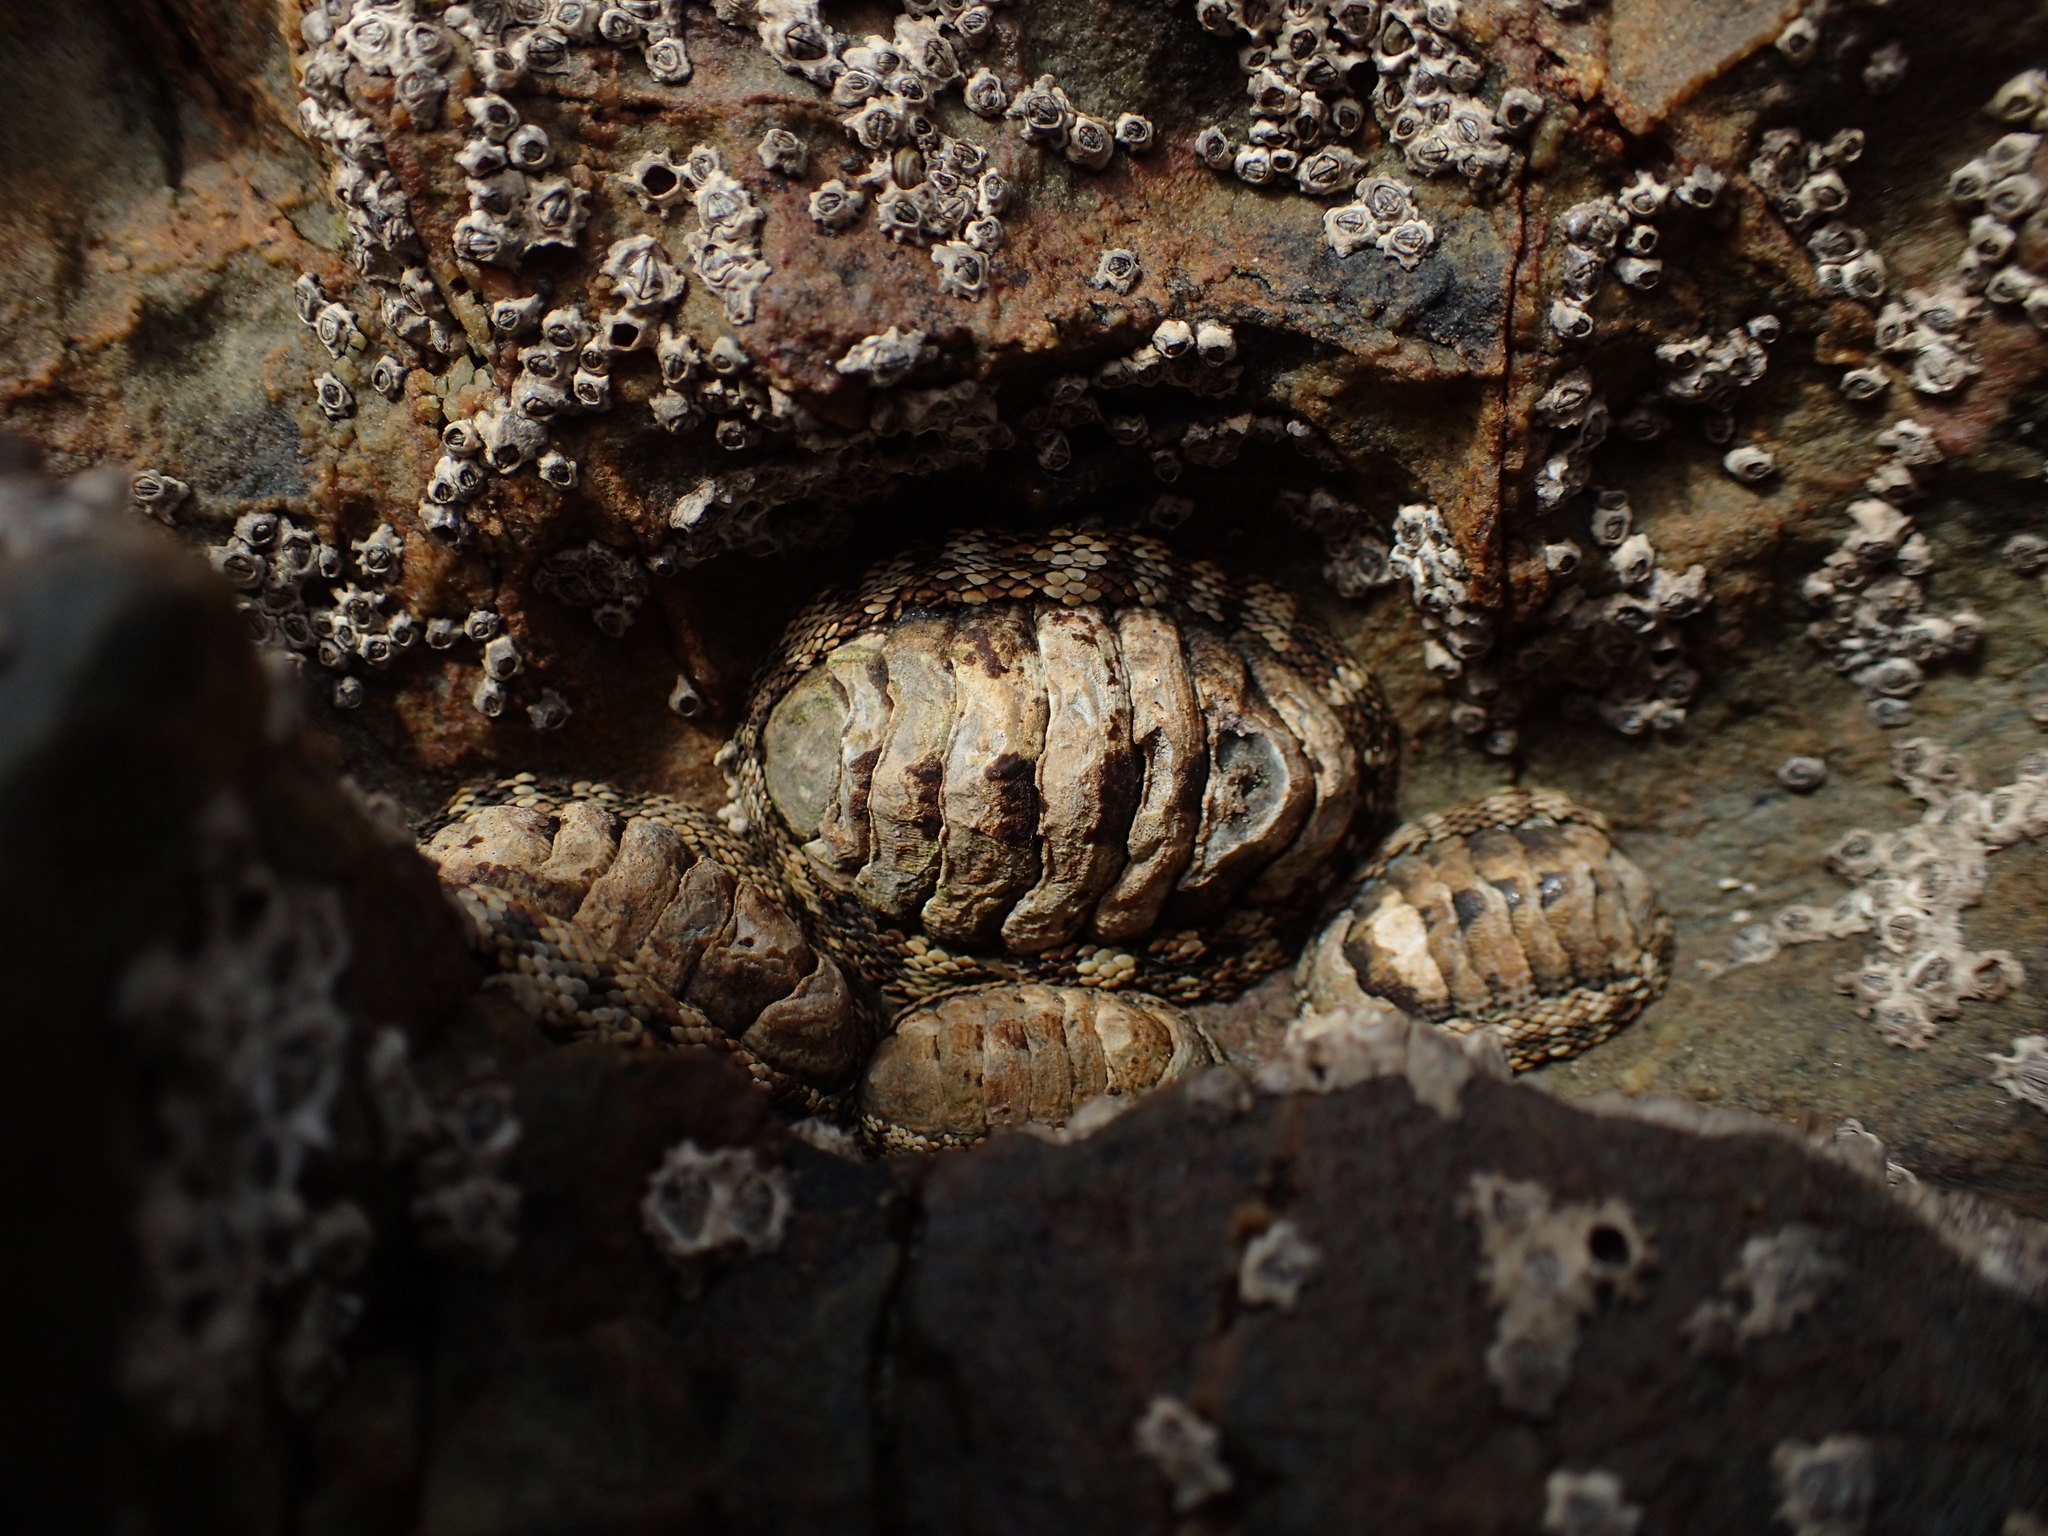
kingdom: Animalia
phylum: Mollusca
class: Polyplacophora
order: Chitonida
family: Chitonidae
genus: Sypharochiton
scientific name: Sypharochiton pelliserpentis
